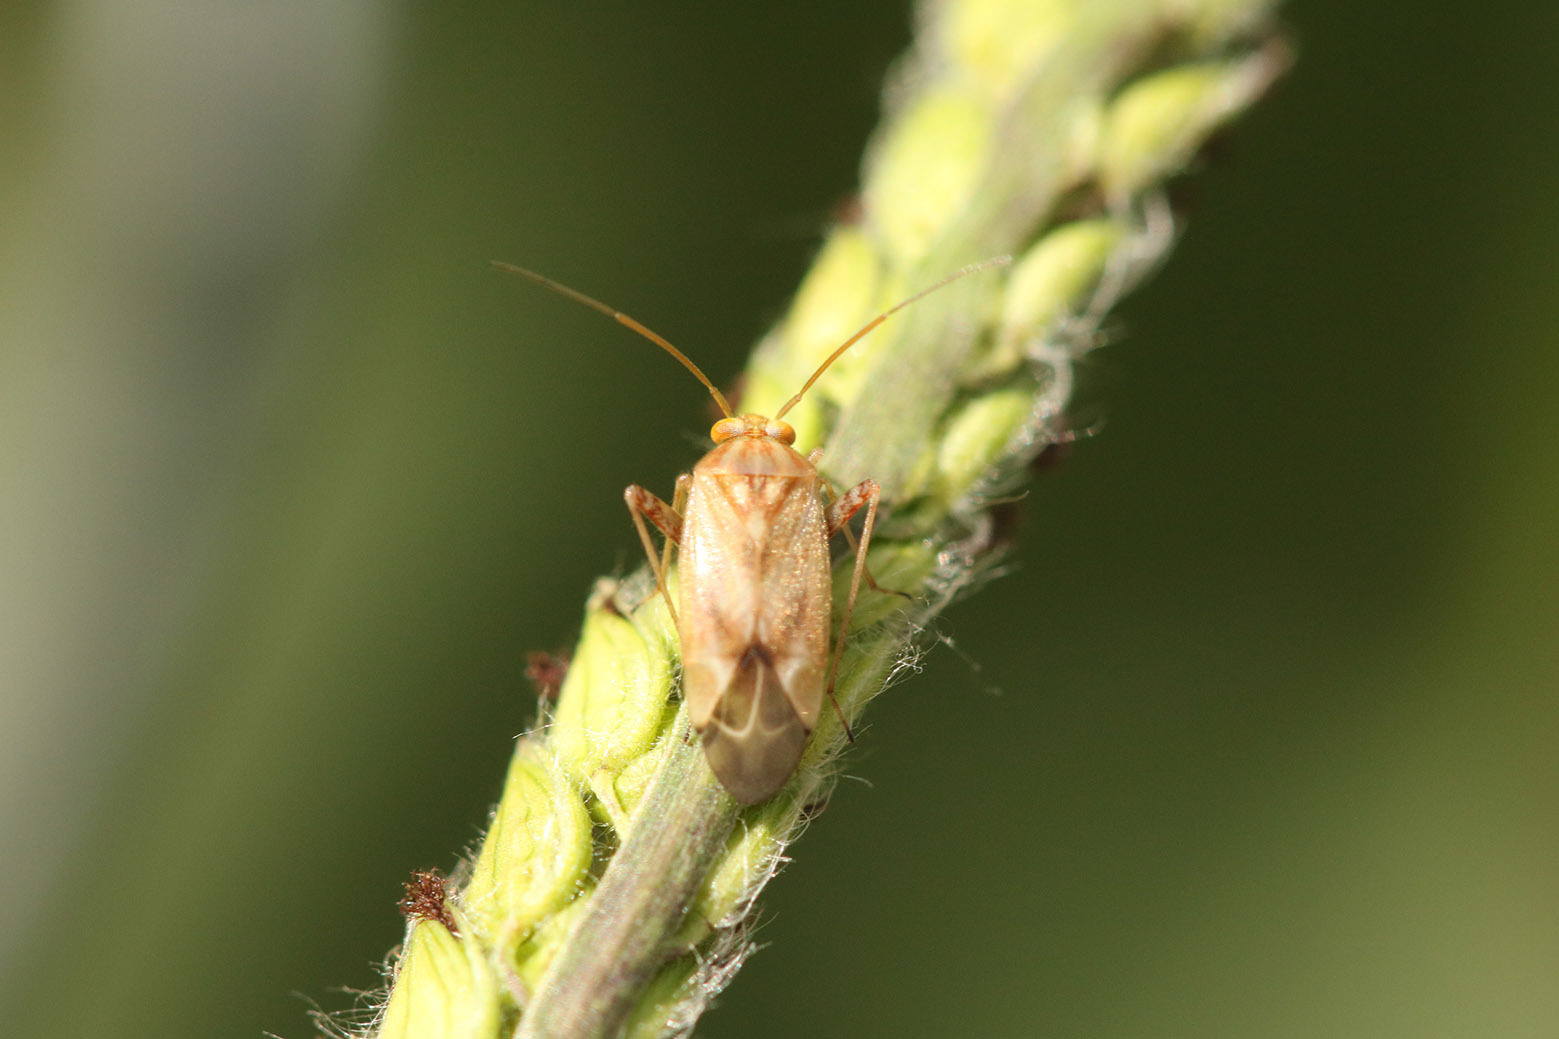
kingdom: Animalia
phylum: Arthropoda
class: Insecta
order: Hemiptera
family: Miridae
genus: Taylorilygus
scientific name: Taylorilygus apicalis
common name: Plant bug
